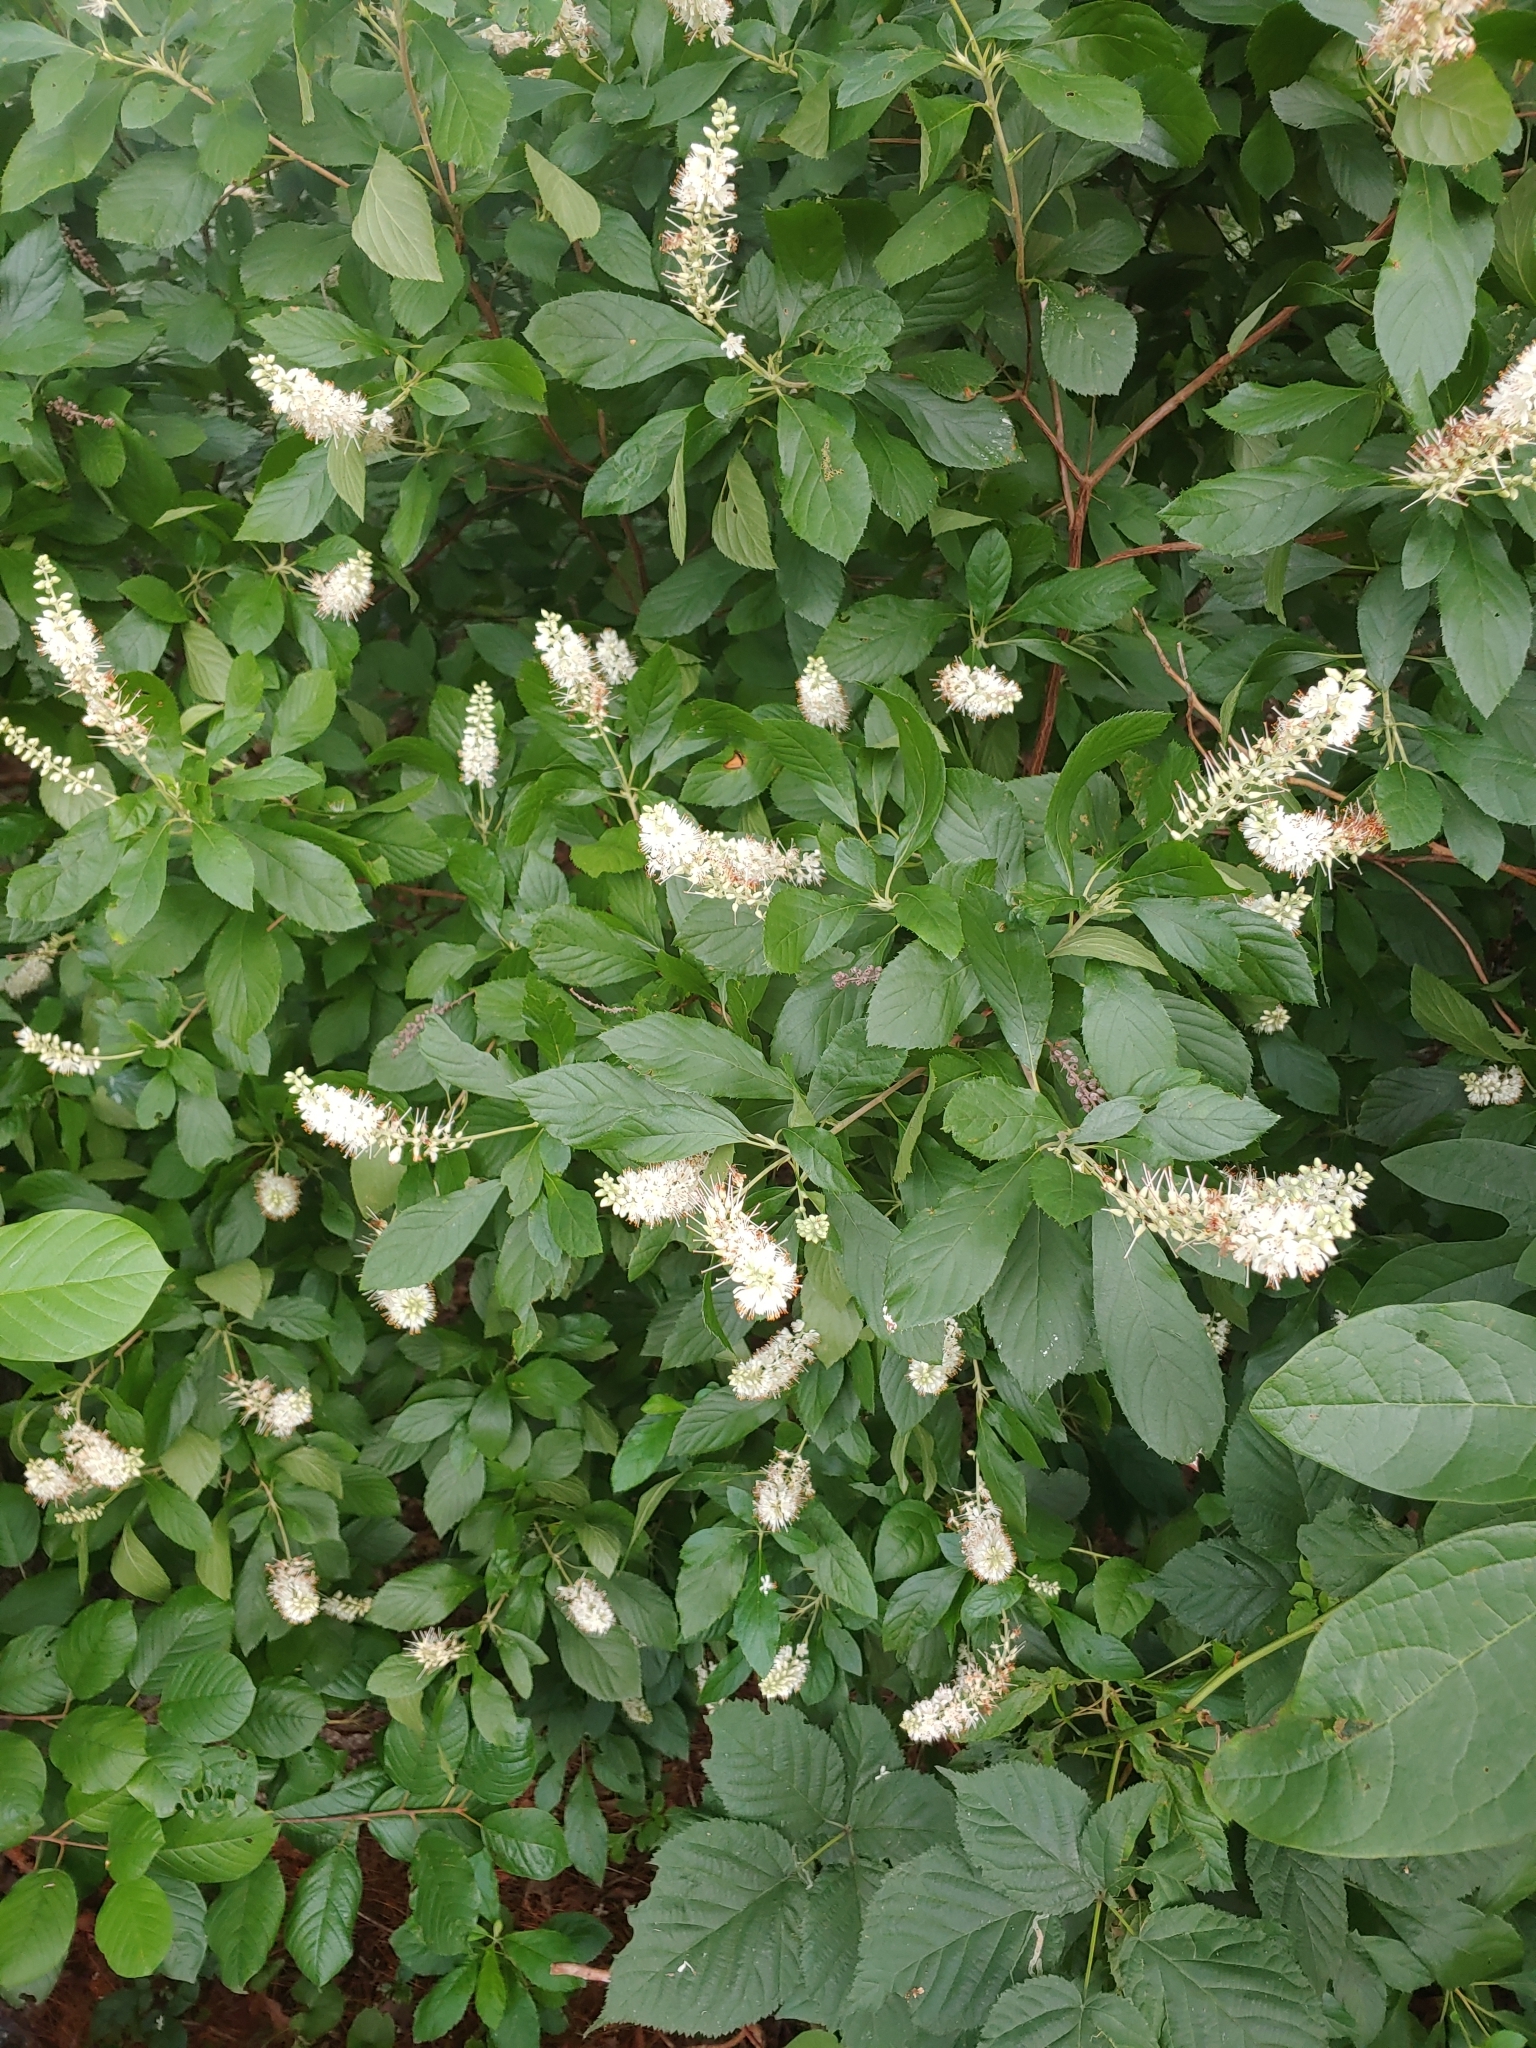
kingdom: Plantae
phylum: Tracheophyta
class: Magnoliopsida
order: Ericales
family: Clethraceae
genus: Clethra
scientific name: Clethra alnifolia
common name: Sweet pepperbush
